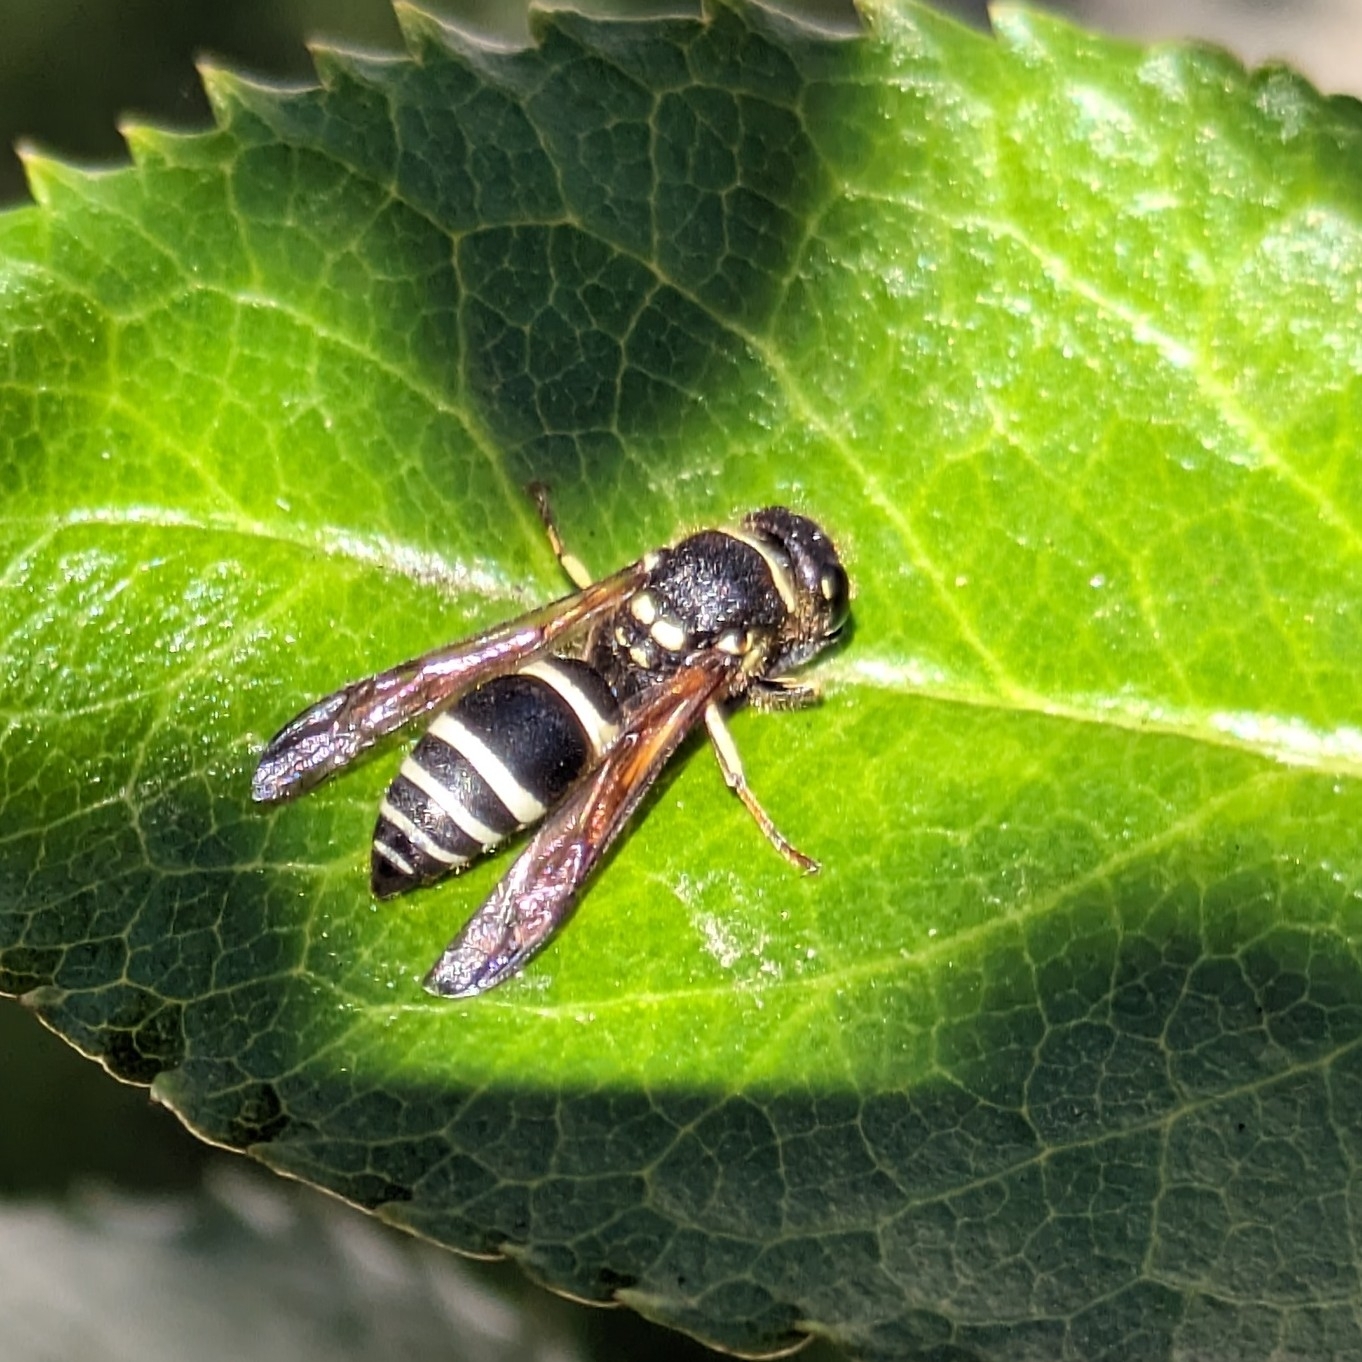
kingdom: Animalia
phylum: Arthropoda
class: Insecta
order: Hymenoptera
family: Vespidae
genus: Ancistrocerus
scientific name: Ancistrocerus albophaleratus
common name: White-banded potter wasp
